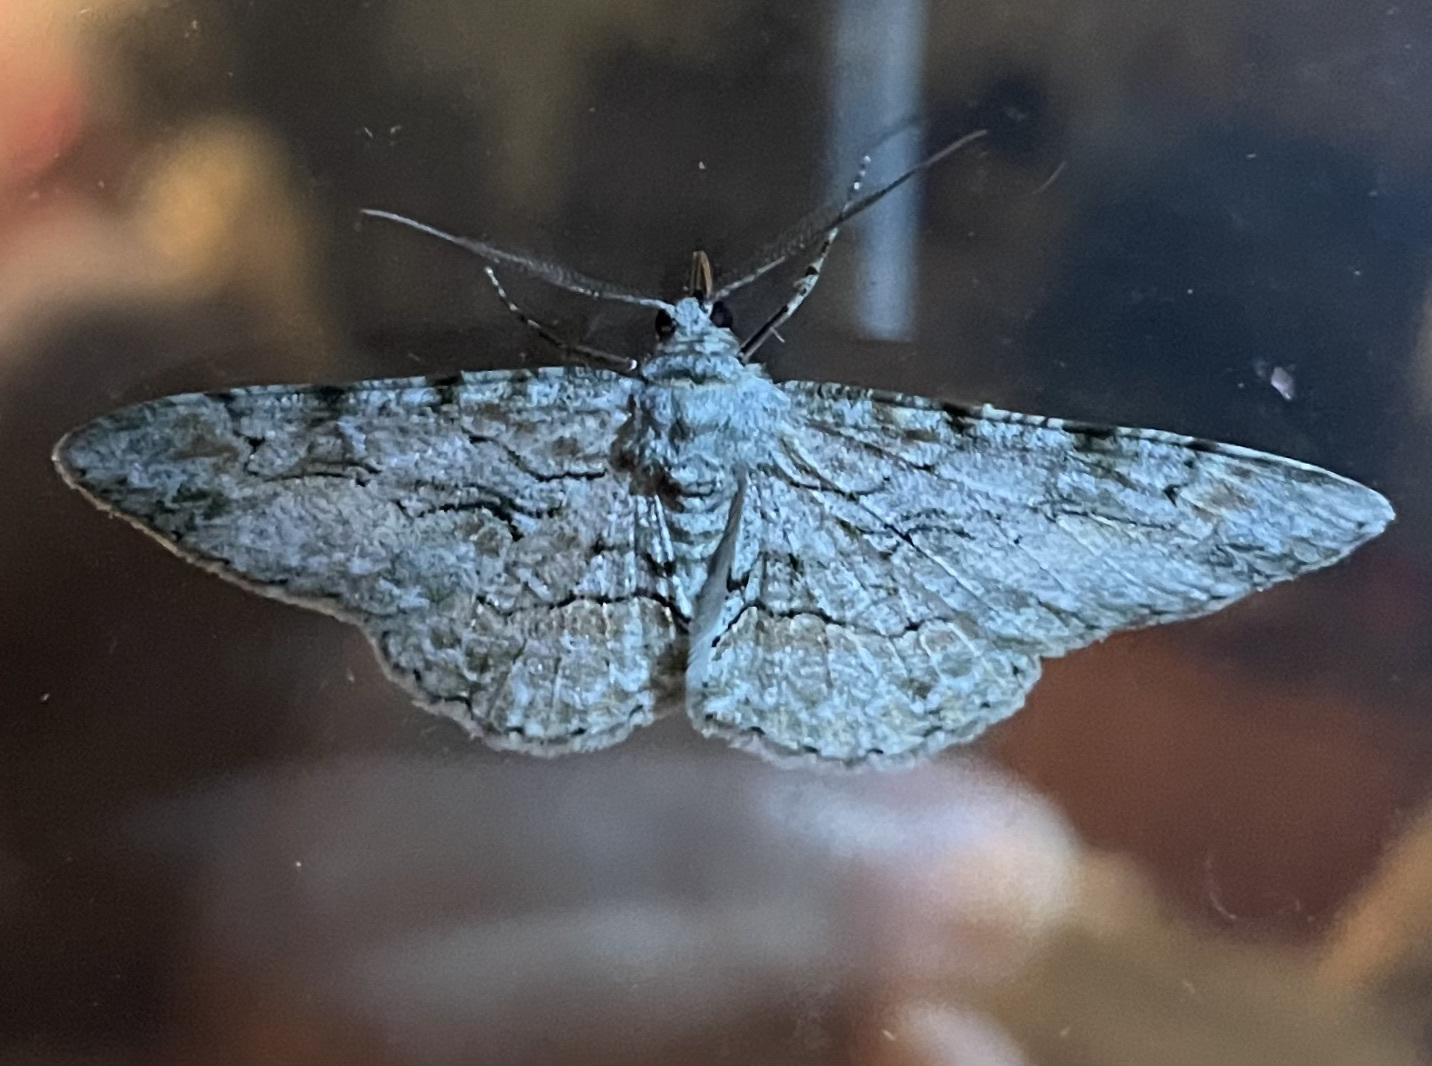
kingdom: Animalia
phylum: Arthropoda
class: Insecta
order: Lepidoptera
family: Geometridae
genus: Iridopsis
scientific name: Iridopsis defectaria
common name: Brown-shaded gray
